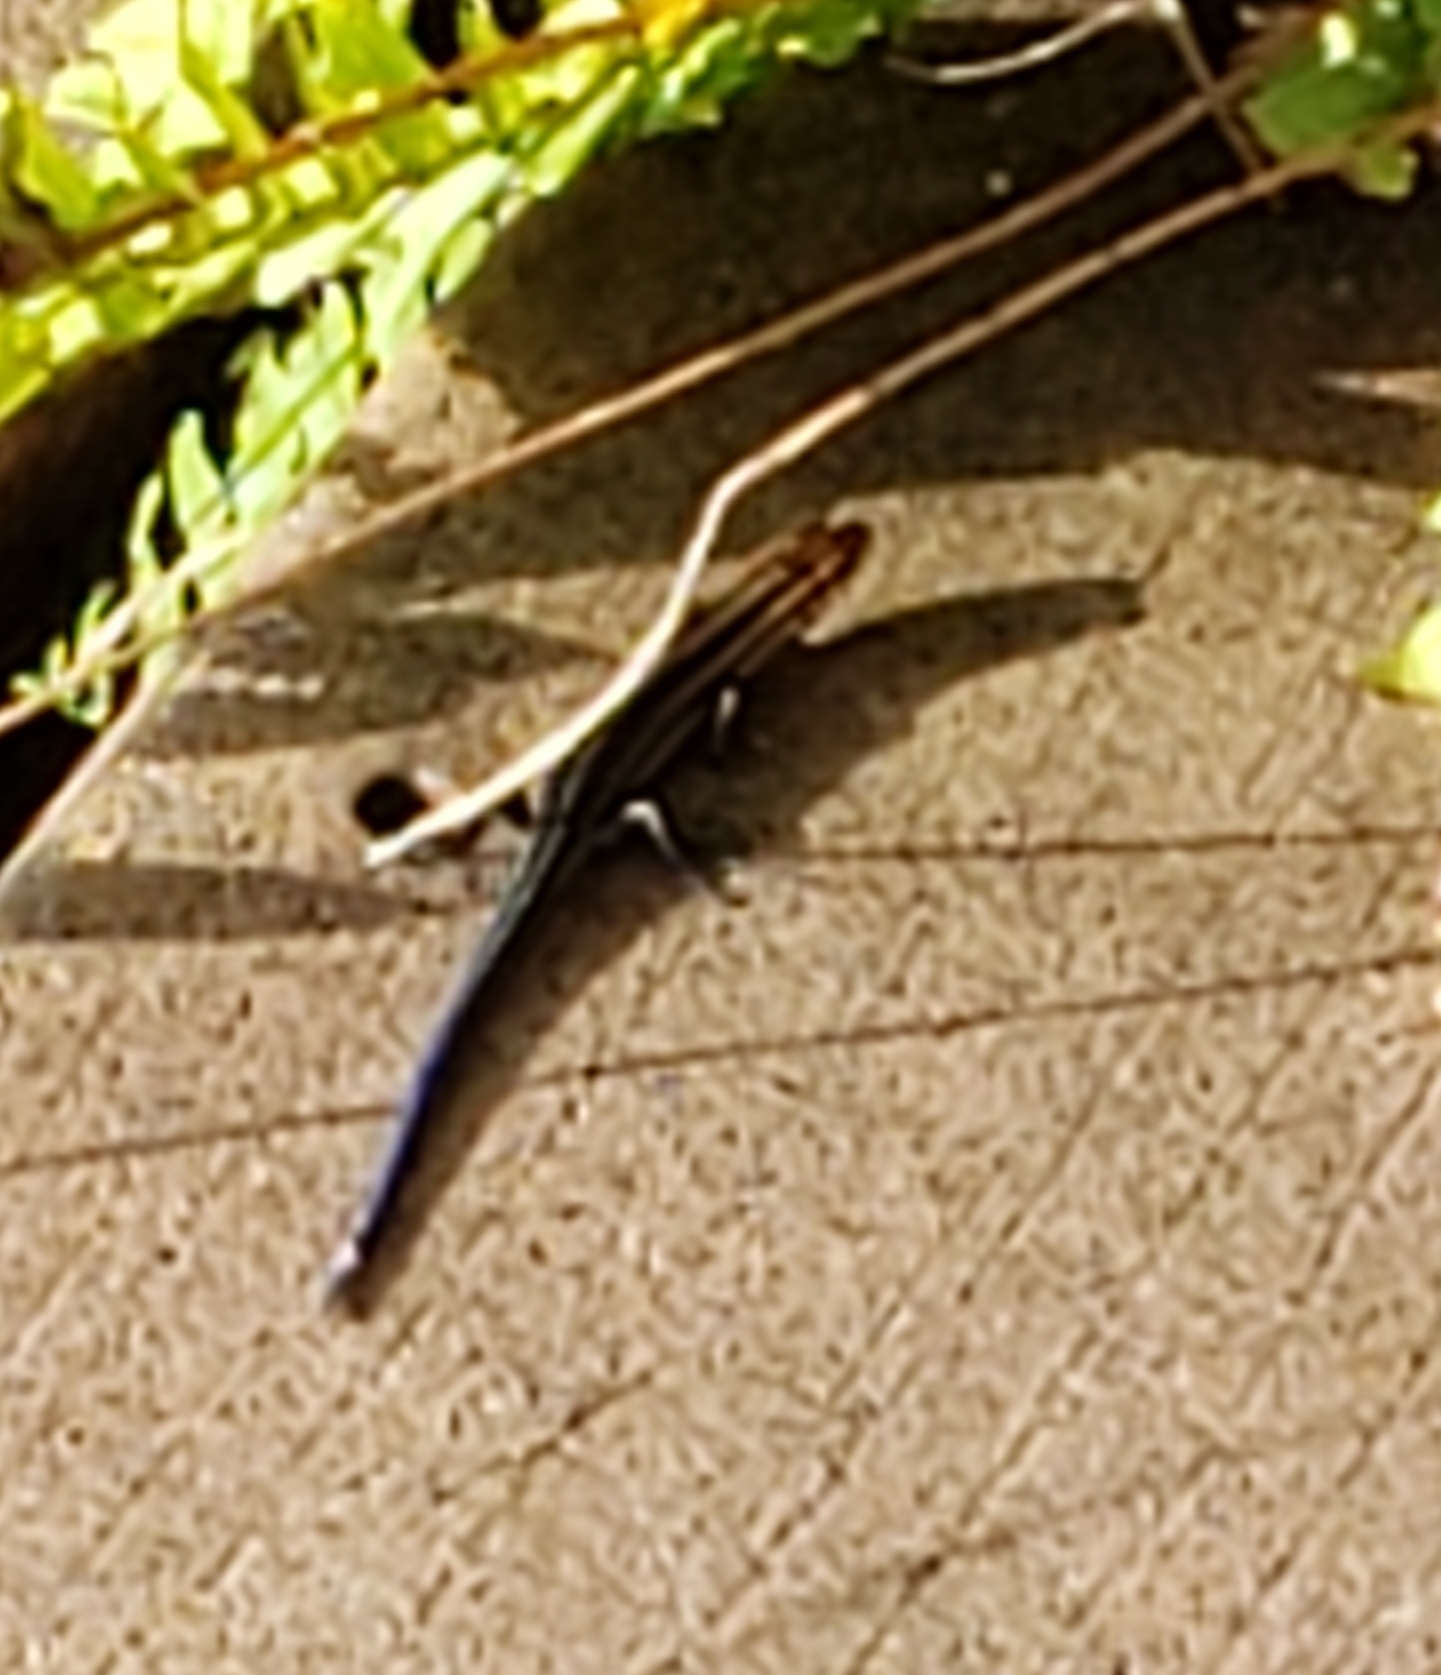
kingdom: Animalia
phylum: Chordata
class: Squamata
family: Scincidae
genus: Plestiodon
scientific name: Plestiodon
